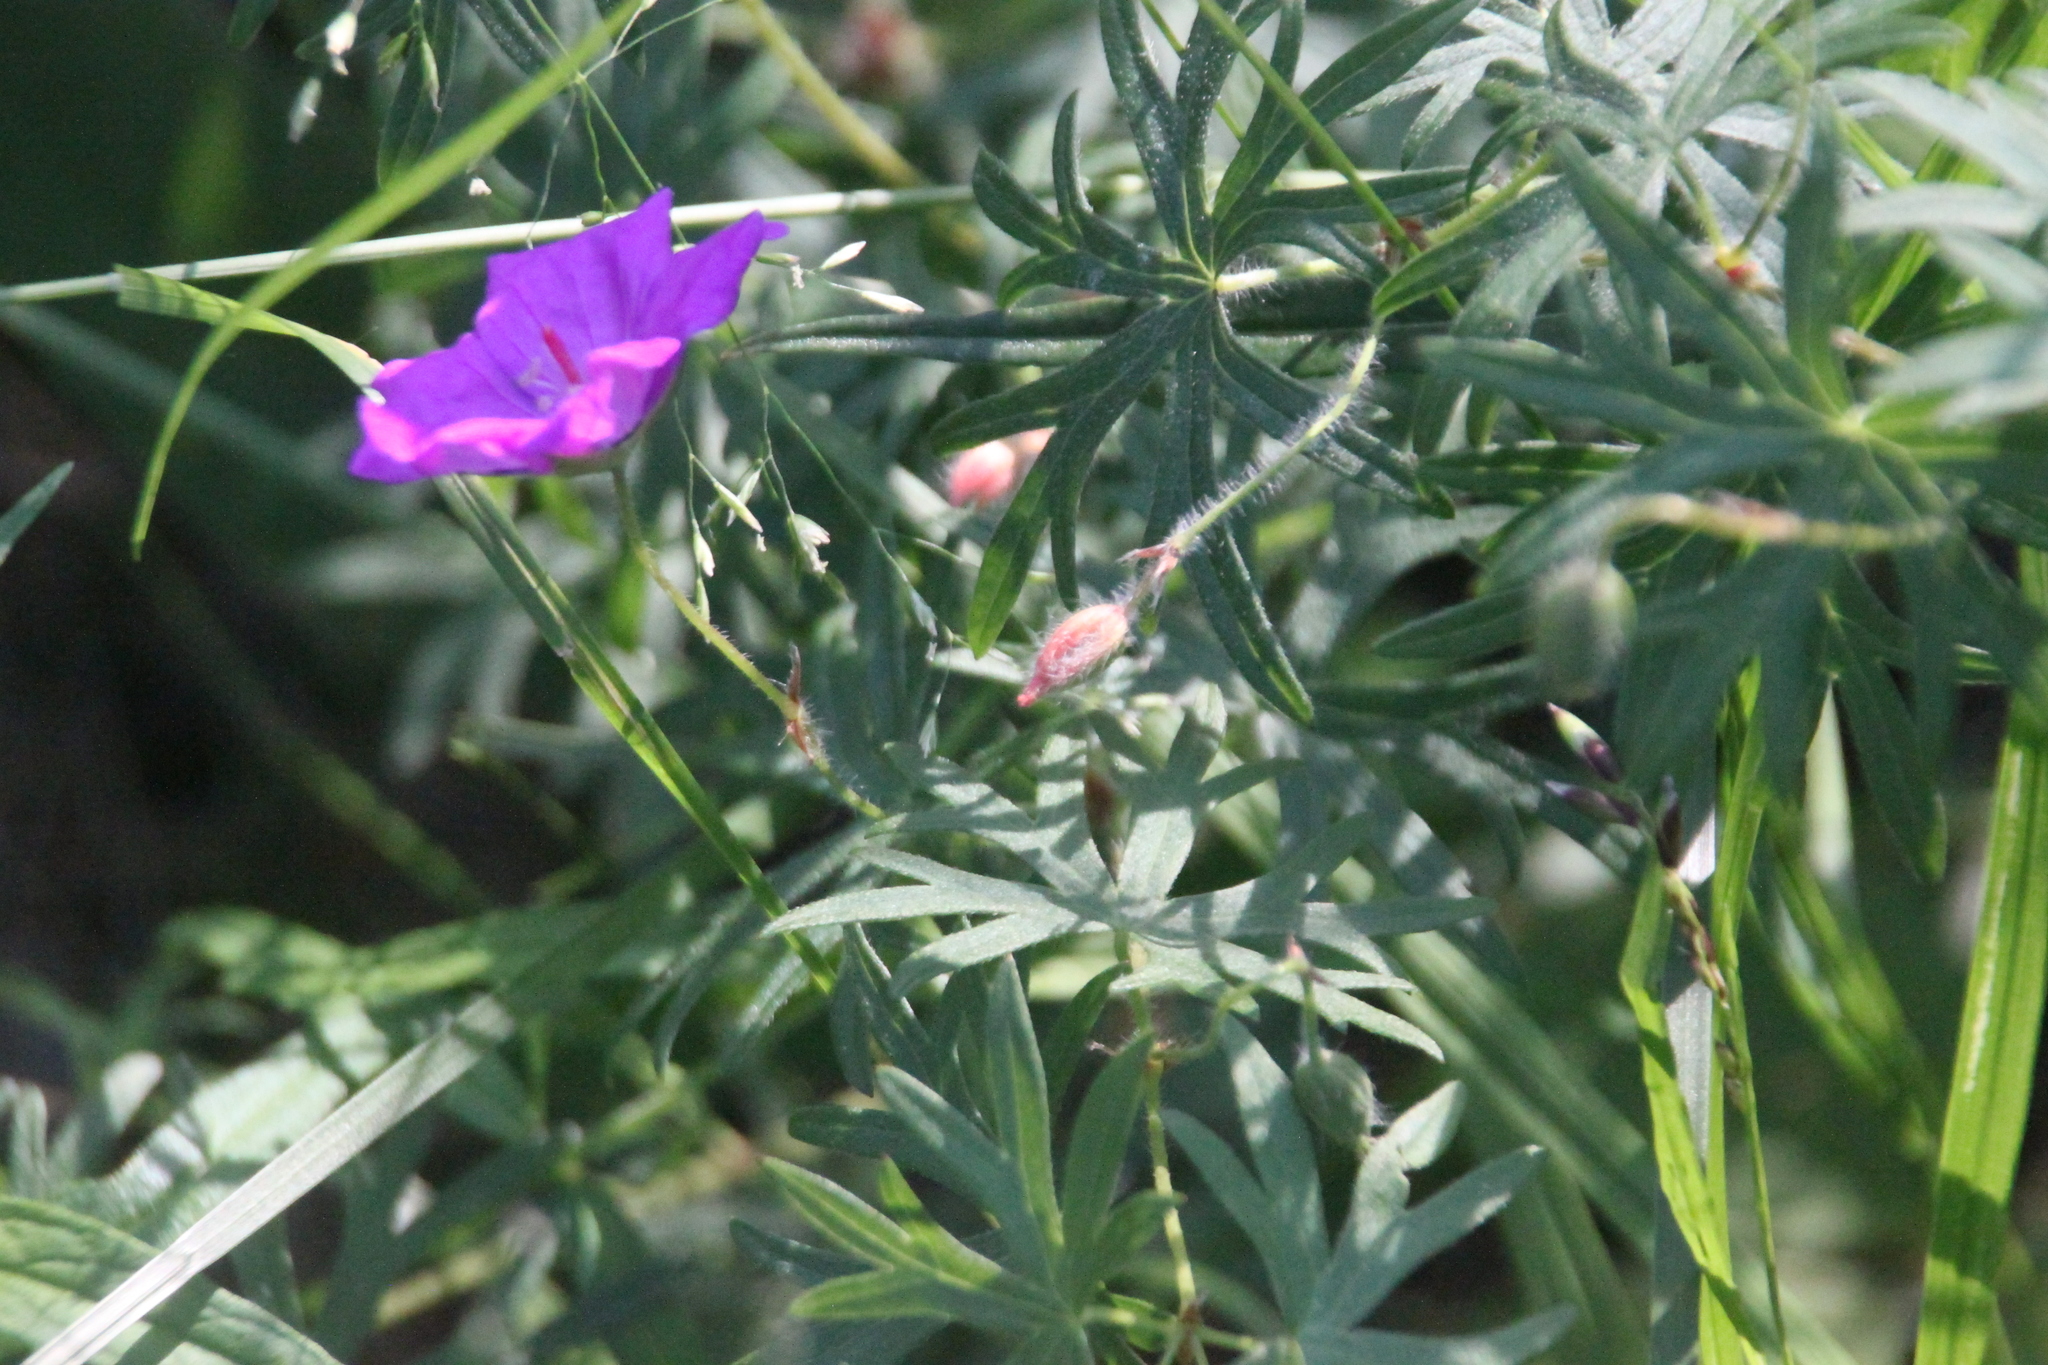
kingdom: Plantae
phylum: Tracheophyta
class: Magnoliopsida
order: Geraniales
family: Geraniaceae
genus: Geranium
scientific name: Geranium sanguineum
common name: Bloody crane's-bill
